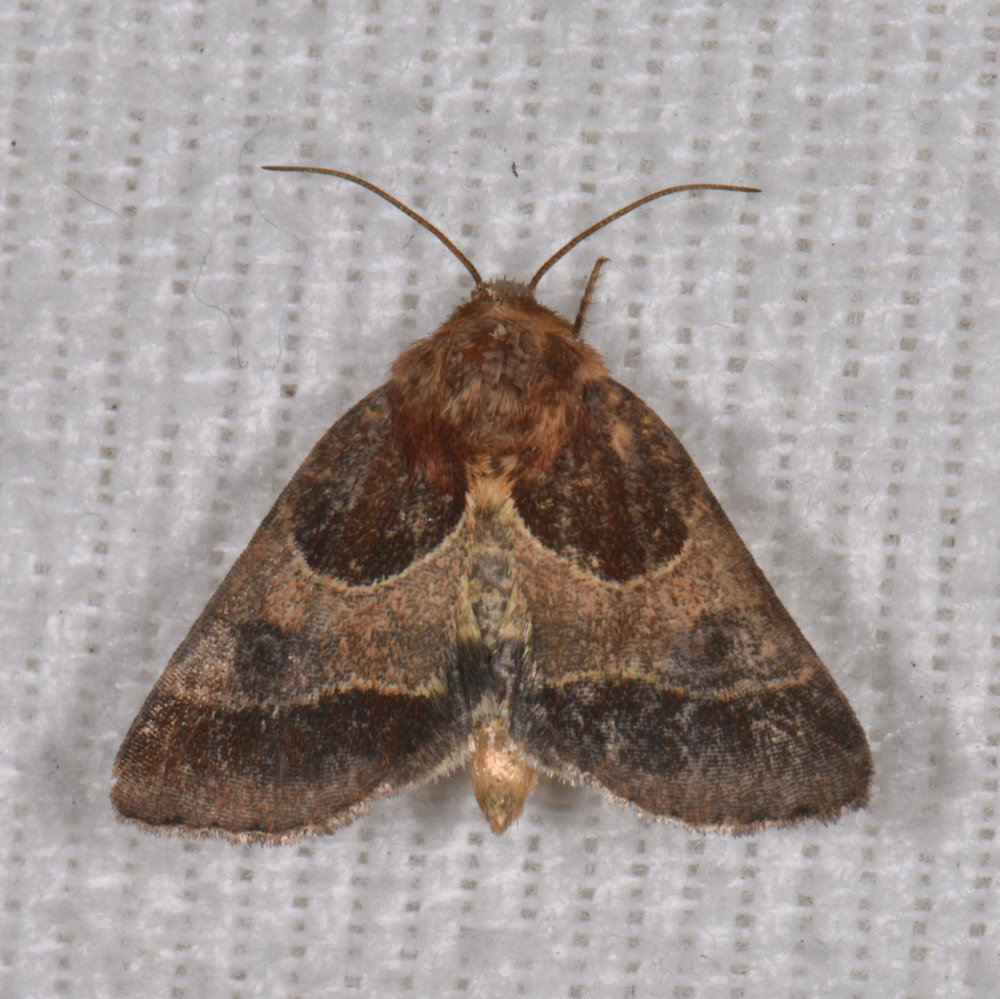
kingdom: Animalia
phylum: Arthropoda
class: Insecta
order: Lepidoptera
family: Noctuidae
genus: Schinia
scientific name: Schinia arcigera
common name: Arcigera flower moth
